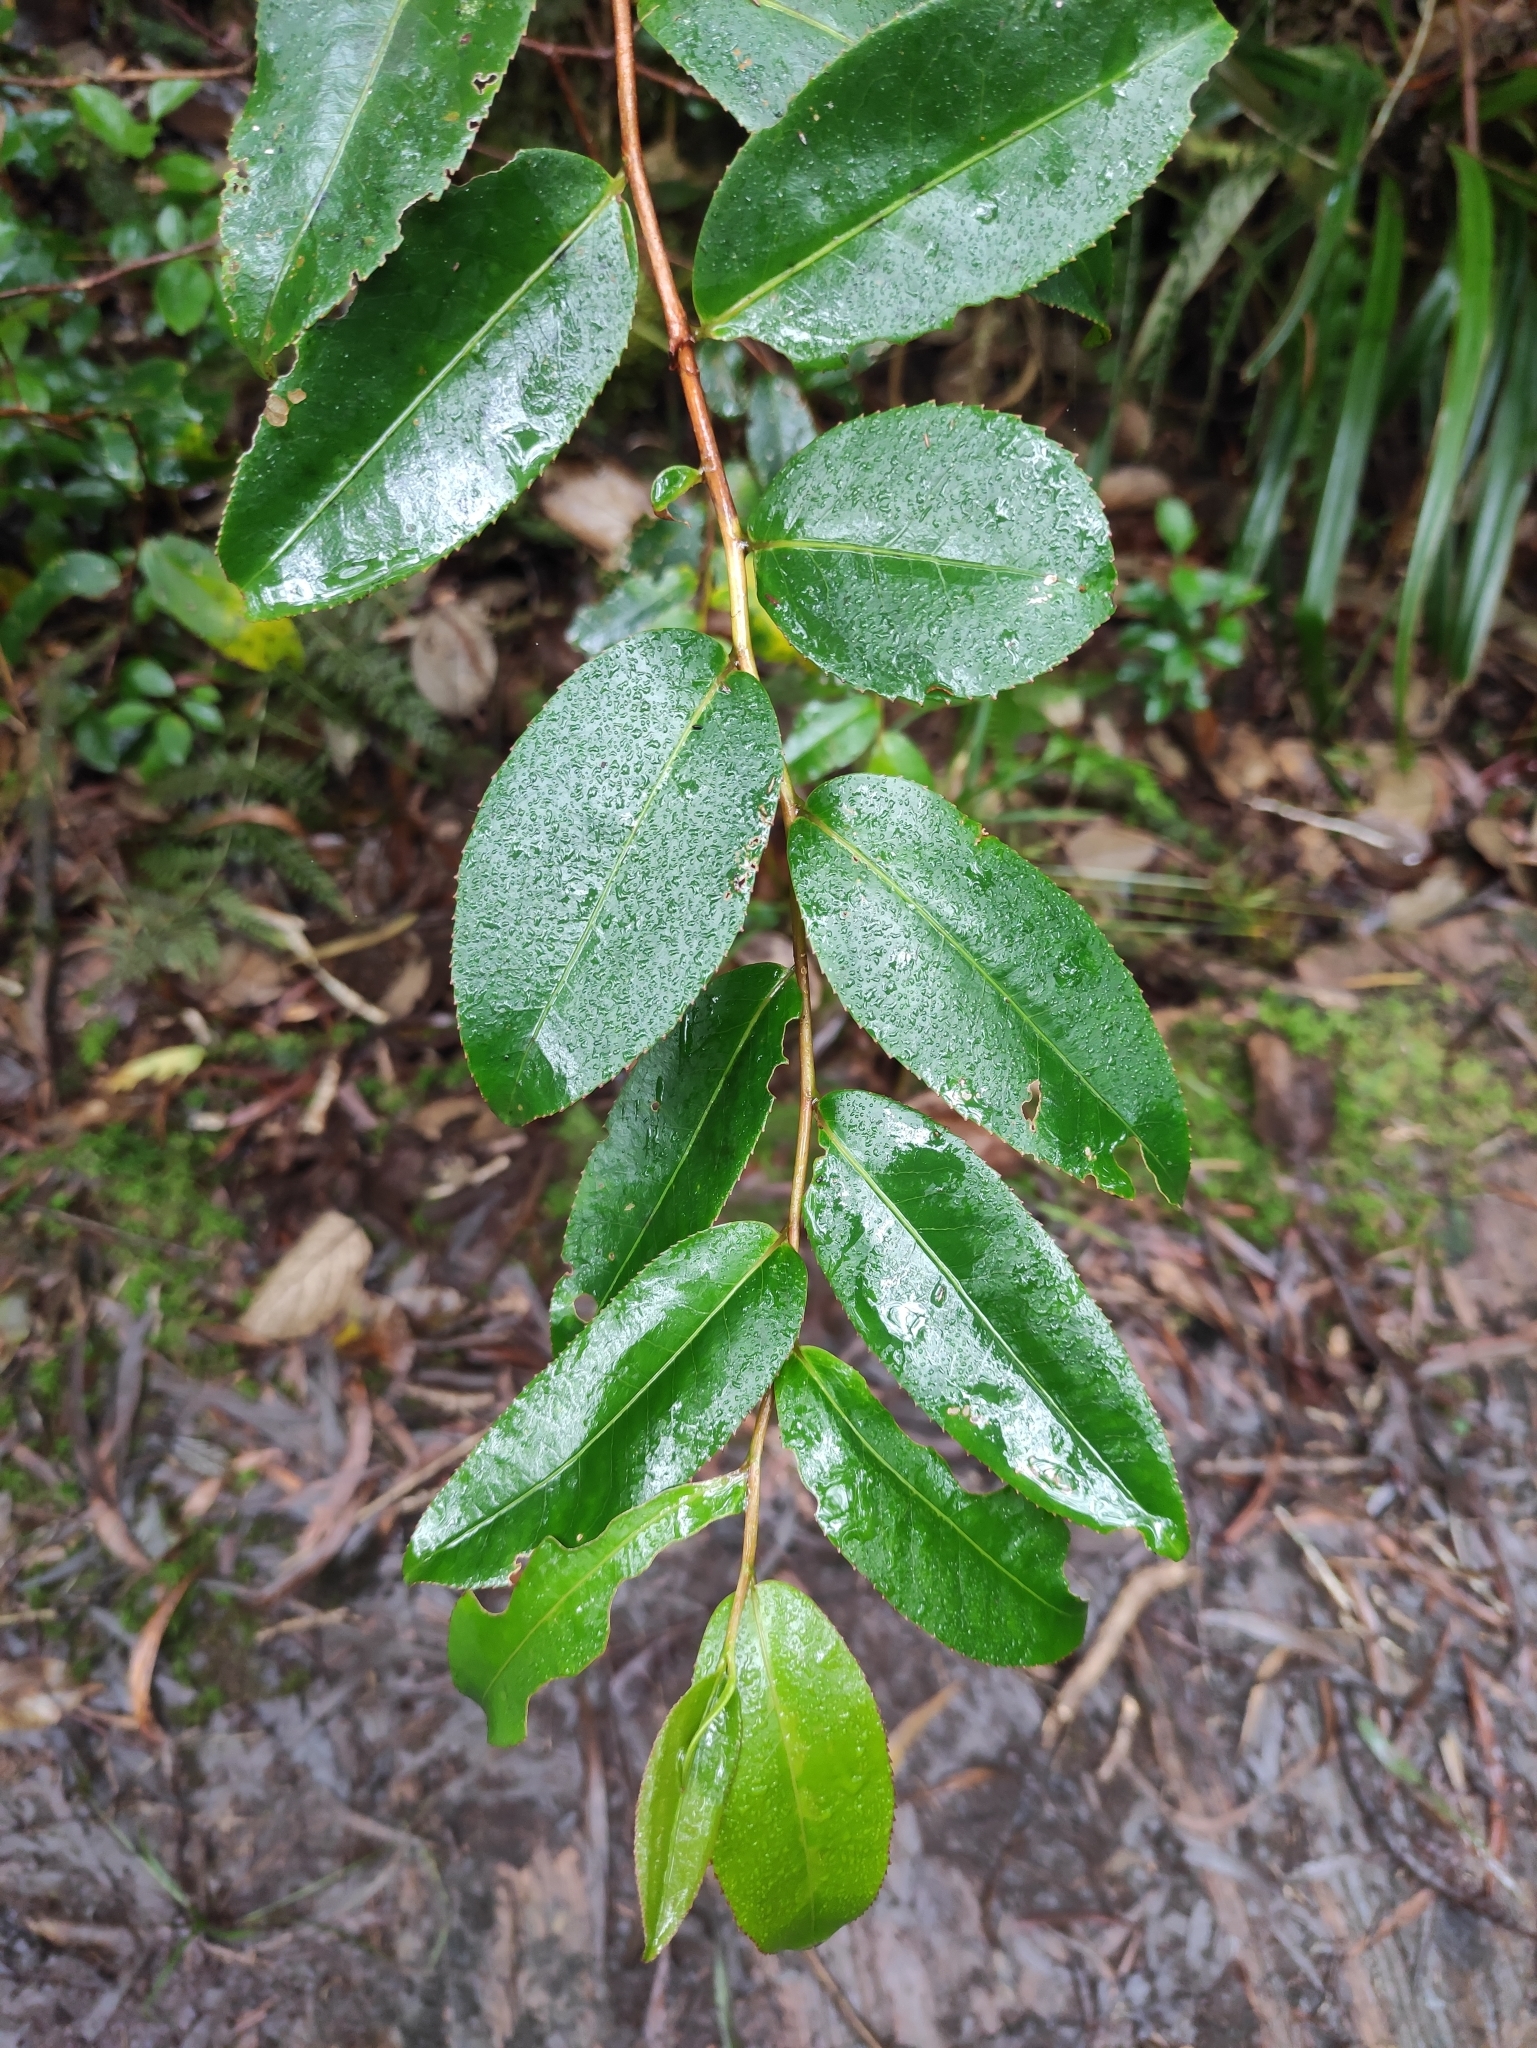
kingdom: Plantae
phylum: Tracheophyta
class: Magnoliopsida
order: Crossosomatales
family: Aphloiaceae
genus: Aphloia
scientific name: Aphloia theiformis
